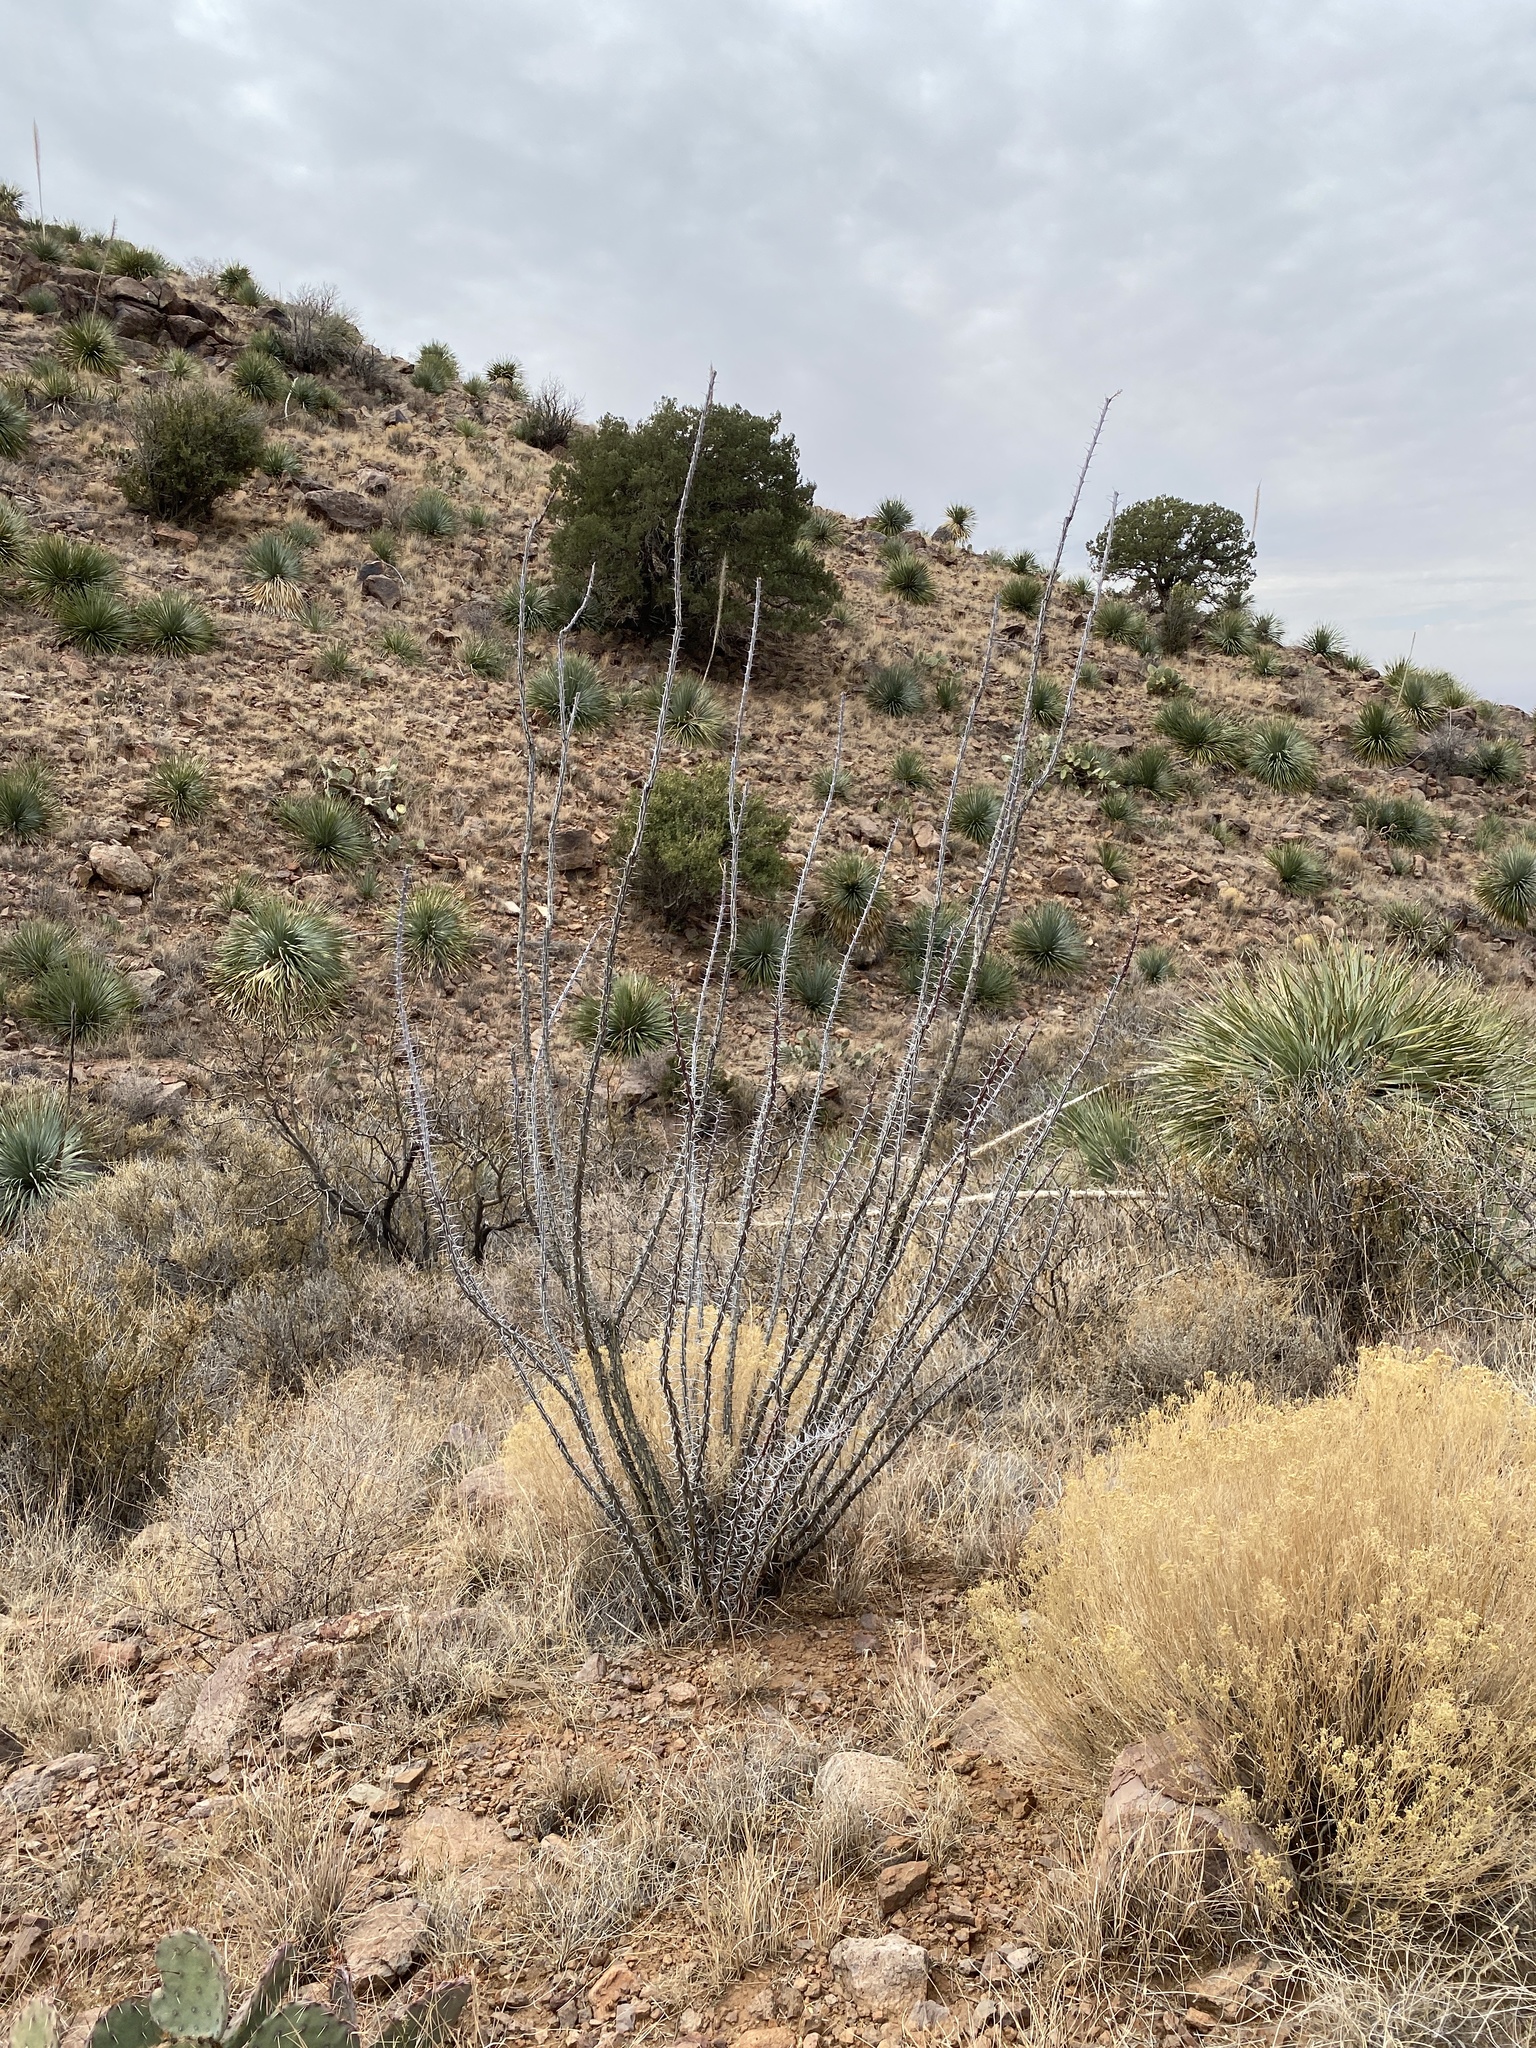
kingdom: Plantae
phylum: Tracheophyta
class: Magnoliopsida
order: Ericales
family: Fouquieriaceae
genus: Fouquieria
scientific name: Fouquieria splendens
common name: Vine-cactus
